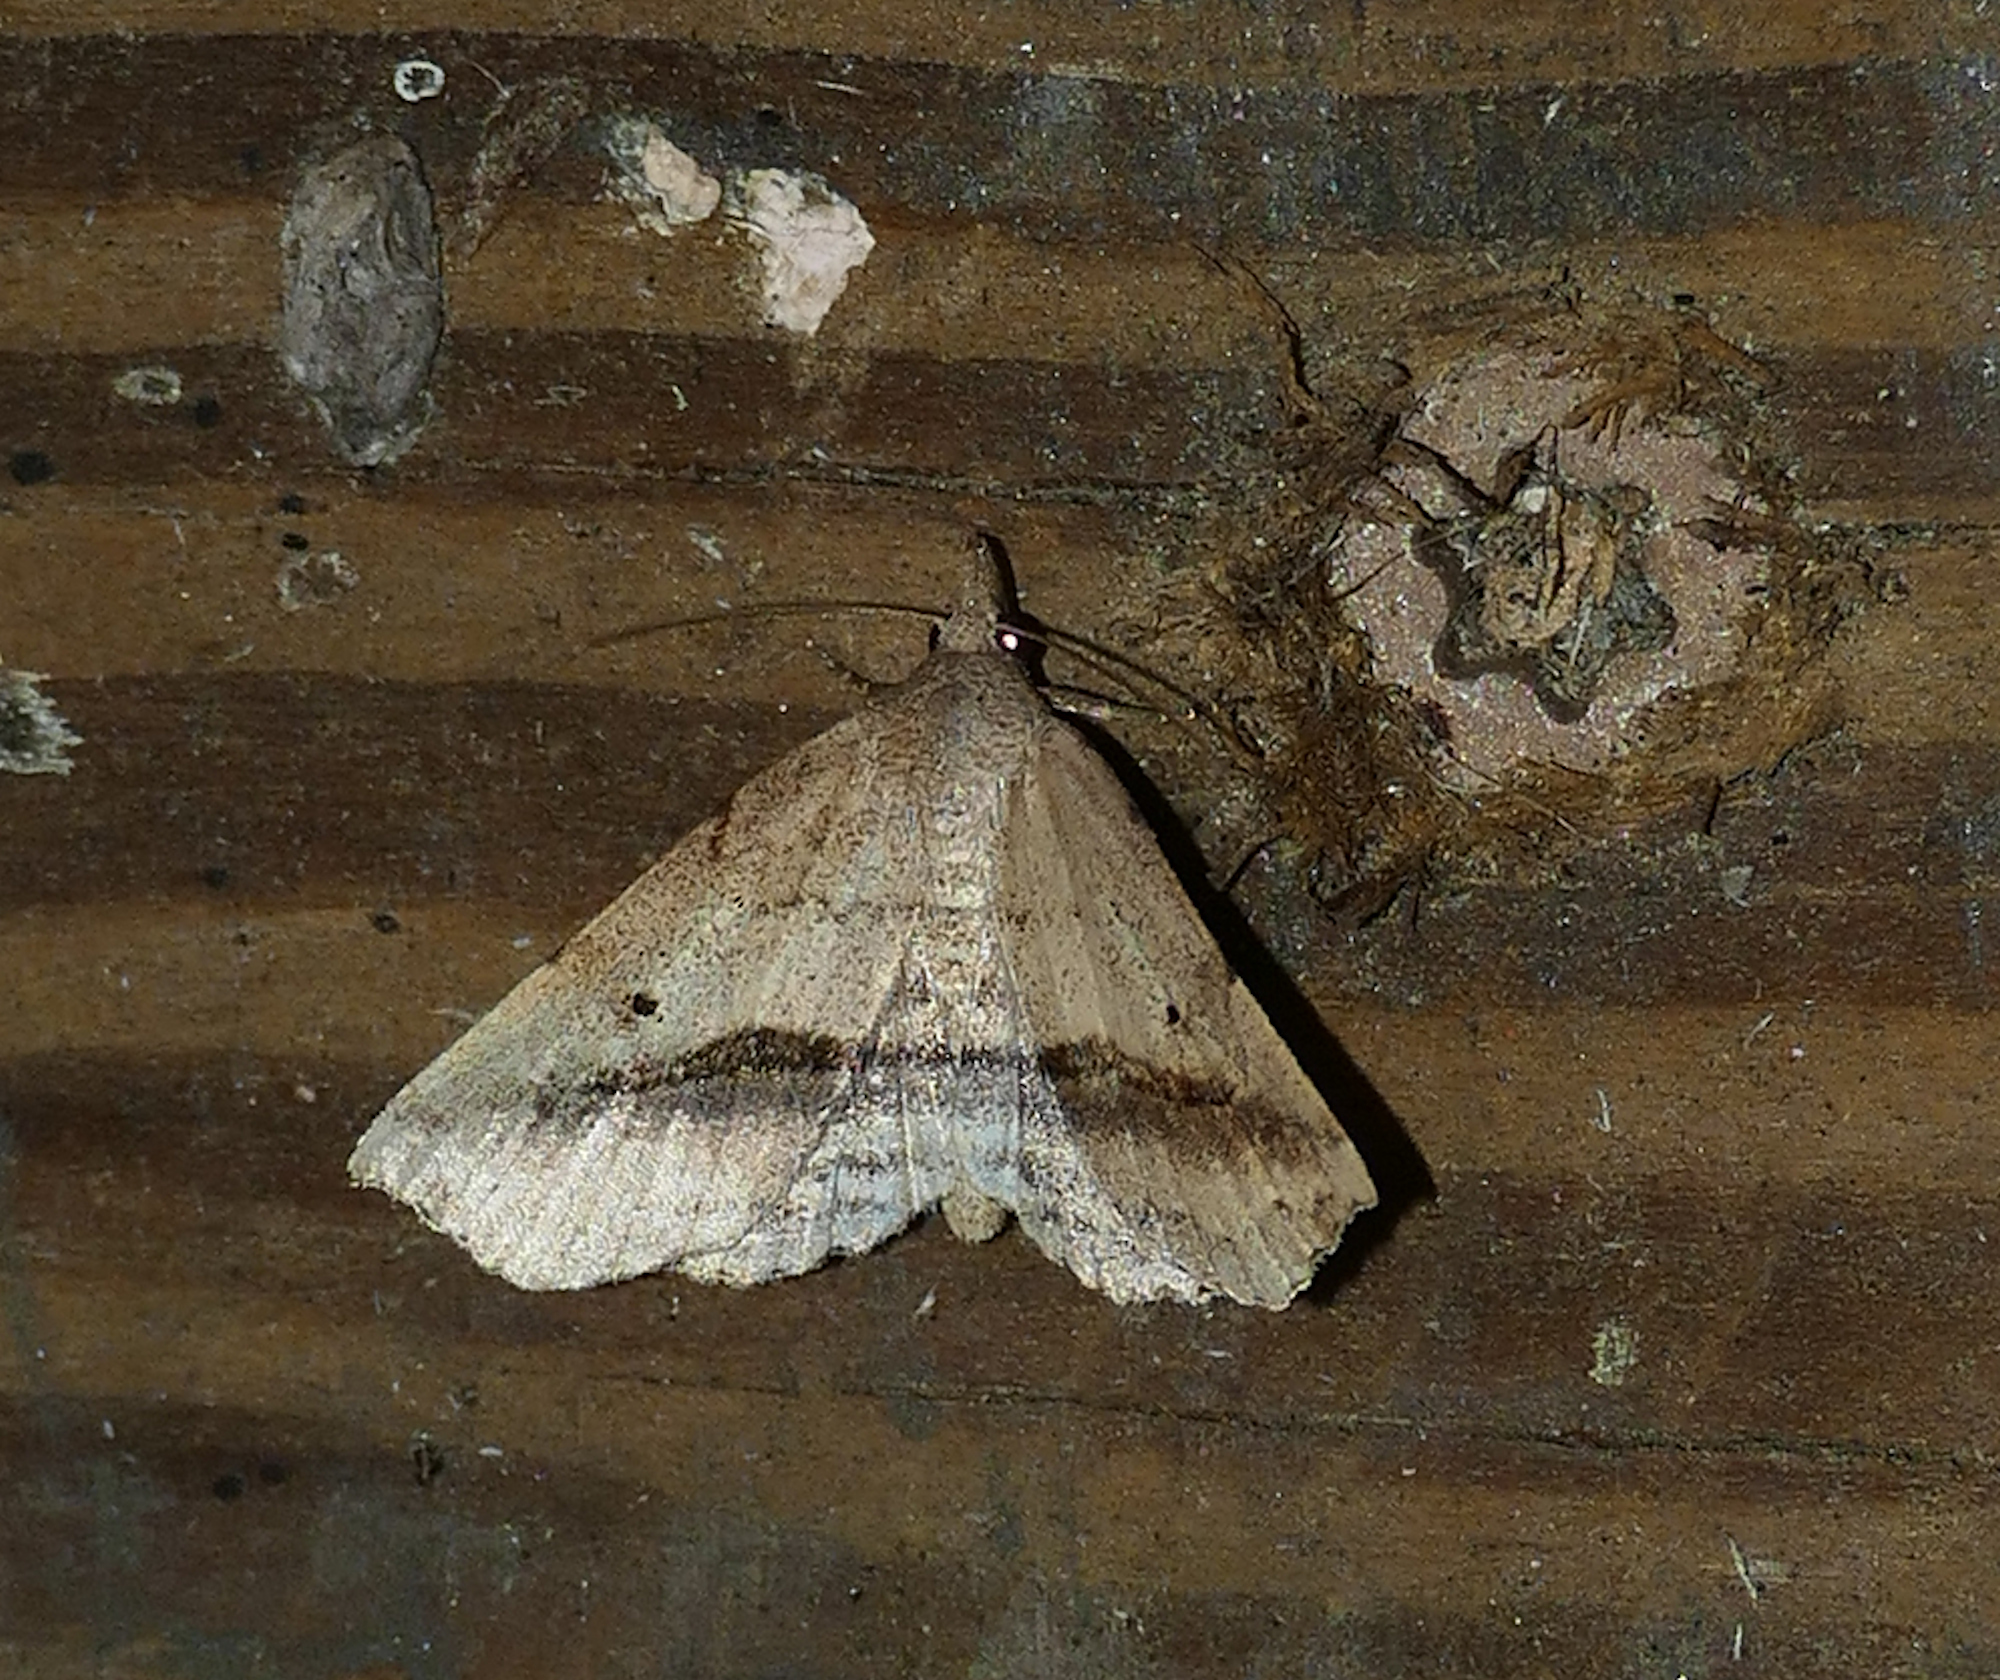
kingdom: Animalia
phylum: Arthropoda
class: Insecta
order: Lepidoptera
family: Erebidae
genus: Spargaloma
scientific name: Spargaloma perditalis
